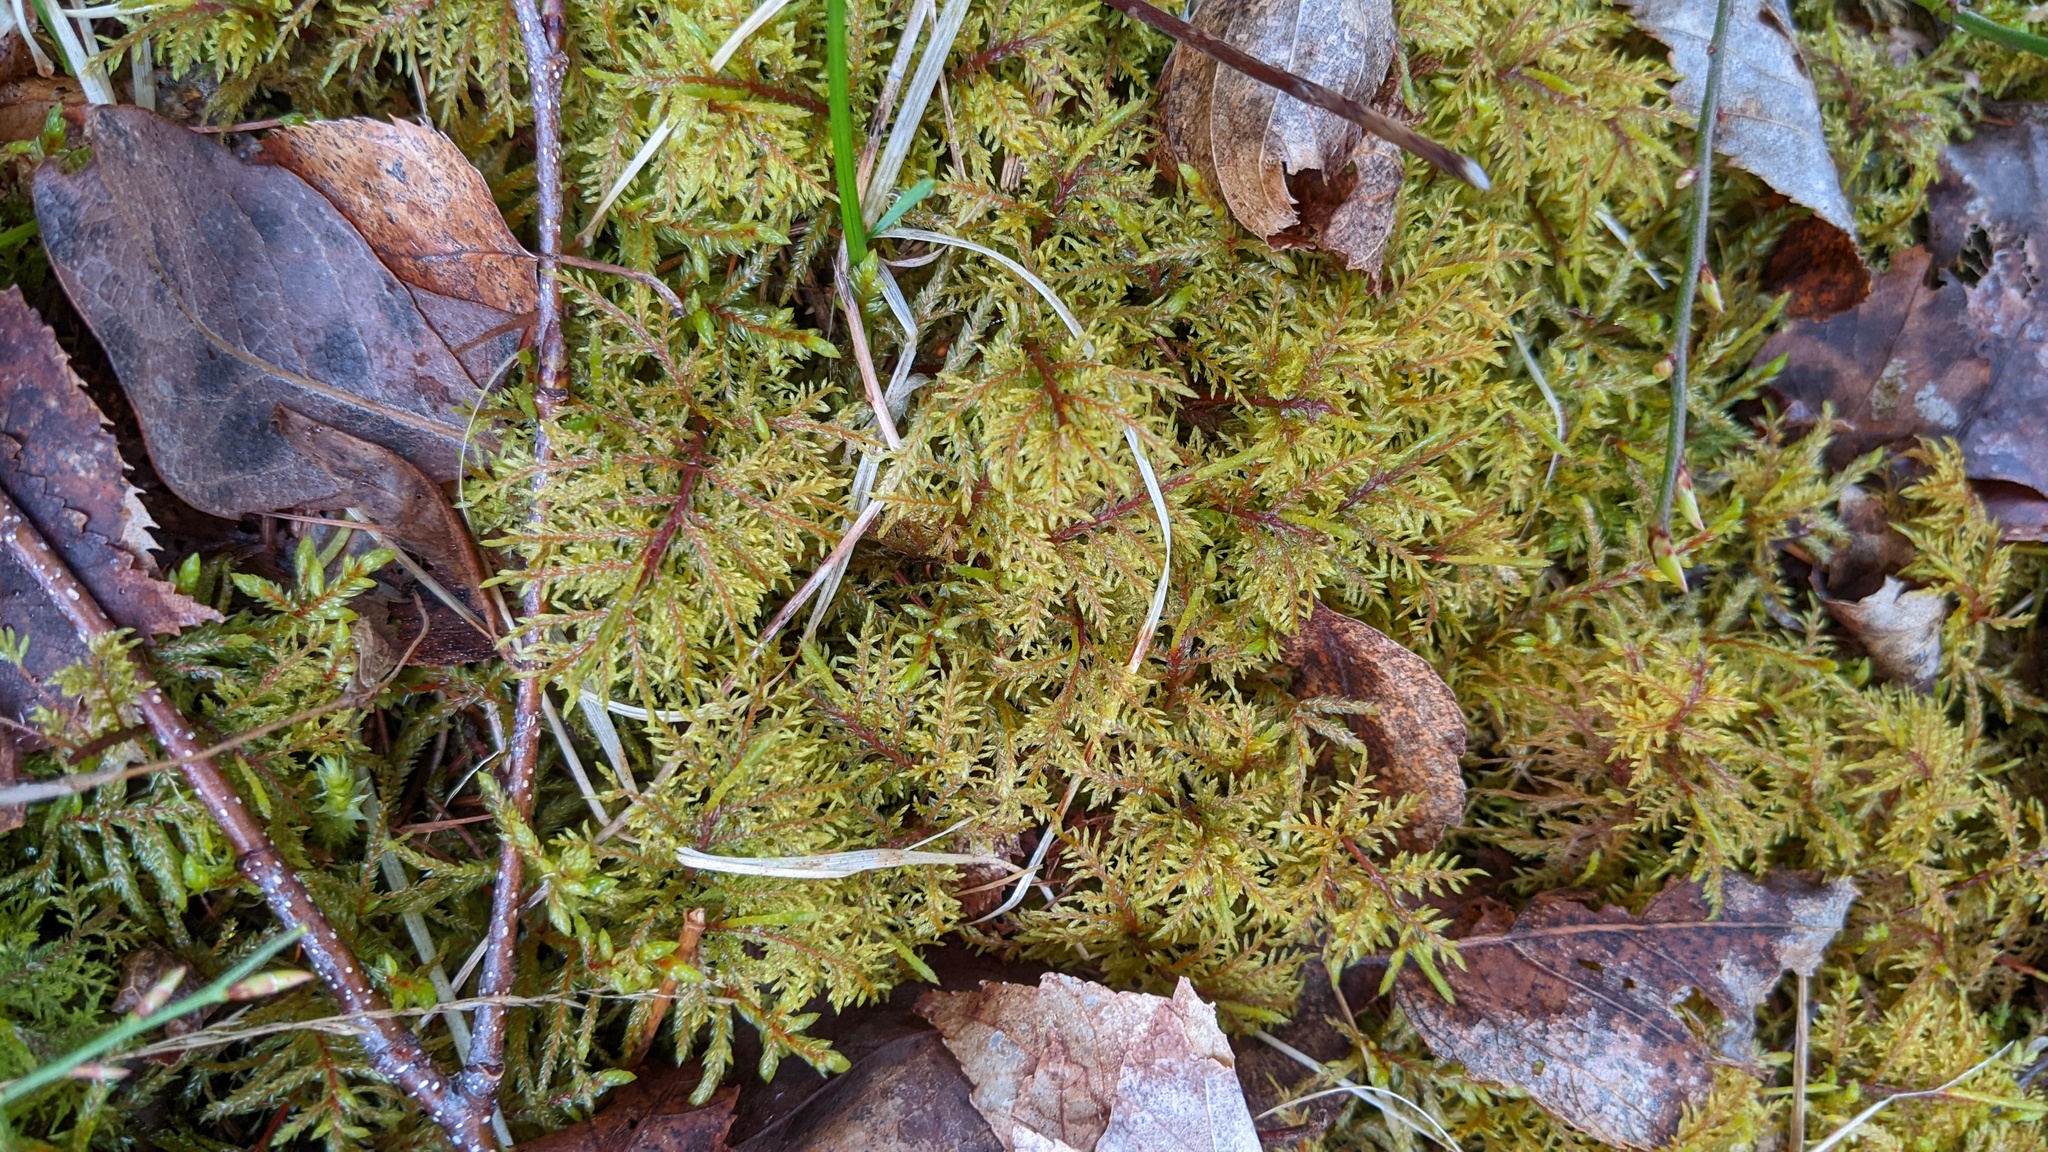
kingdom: Plantae
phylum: Bryophyta
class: Bryopsida
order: Hypnales
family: Hylocomiaceae
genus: Hylocomium
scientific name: Hylocomium splendens
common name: Stairstep moss
